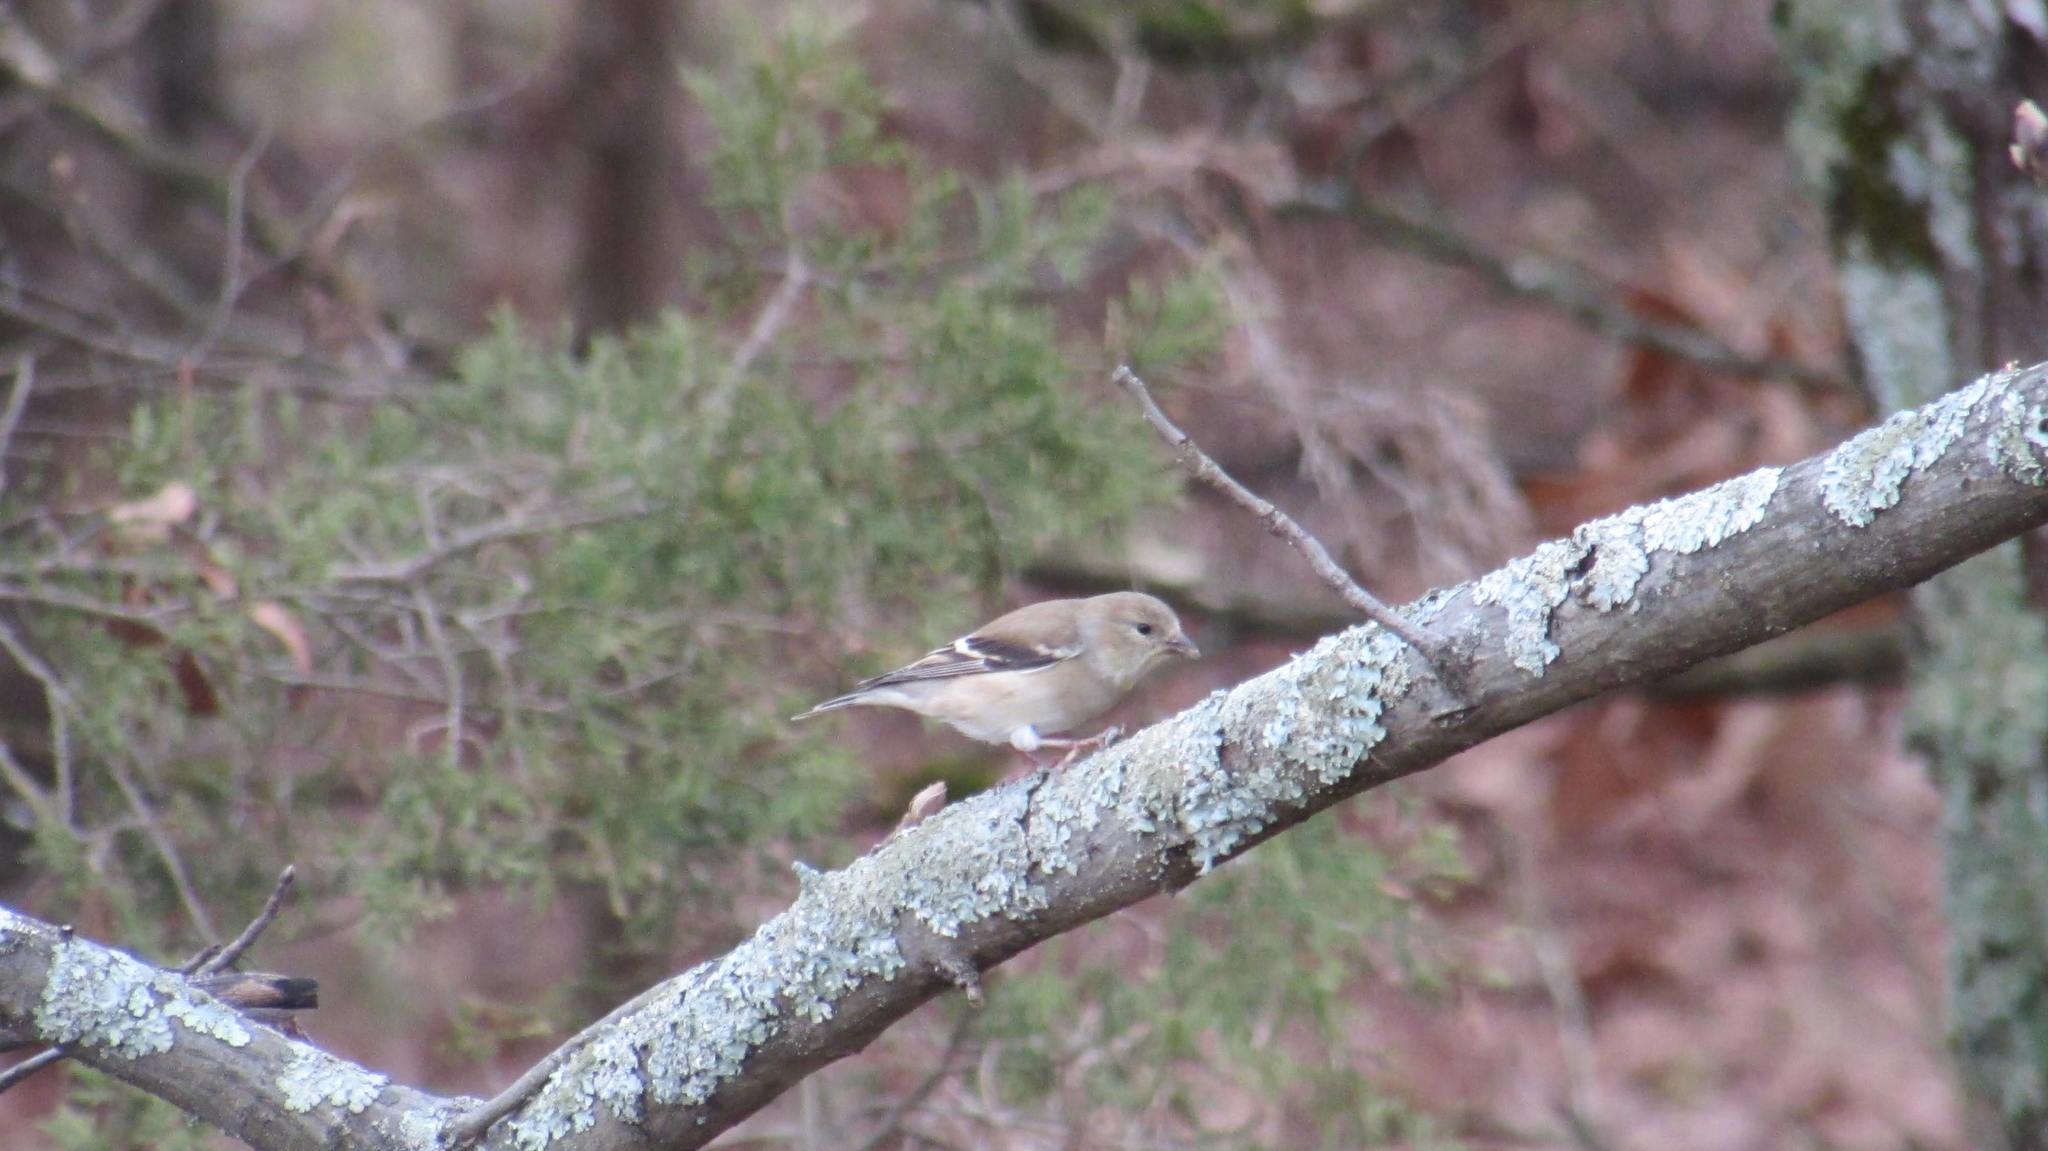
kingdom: Animalia
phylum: Chordata
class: Aves
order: Passeriformes
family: Fringillidae
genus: Spinus
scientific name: Spinus tristis
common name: American goldfinch
